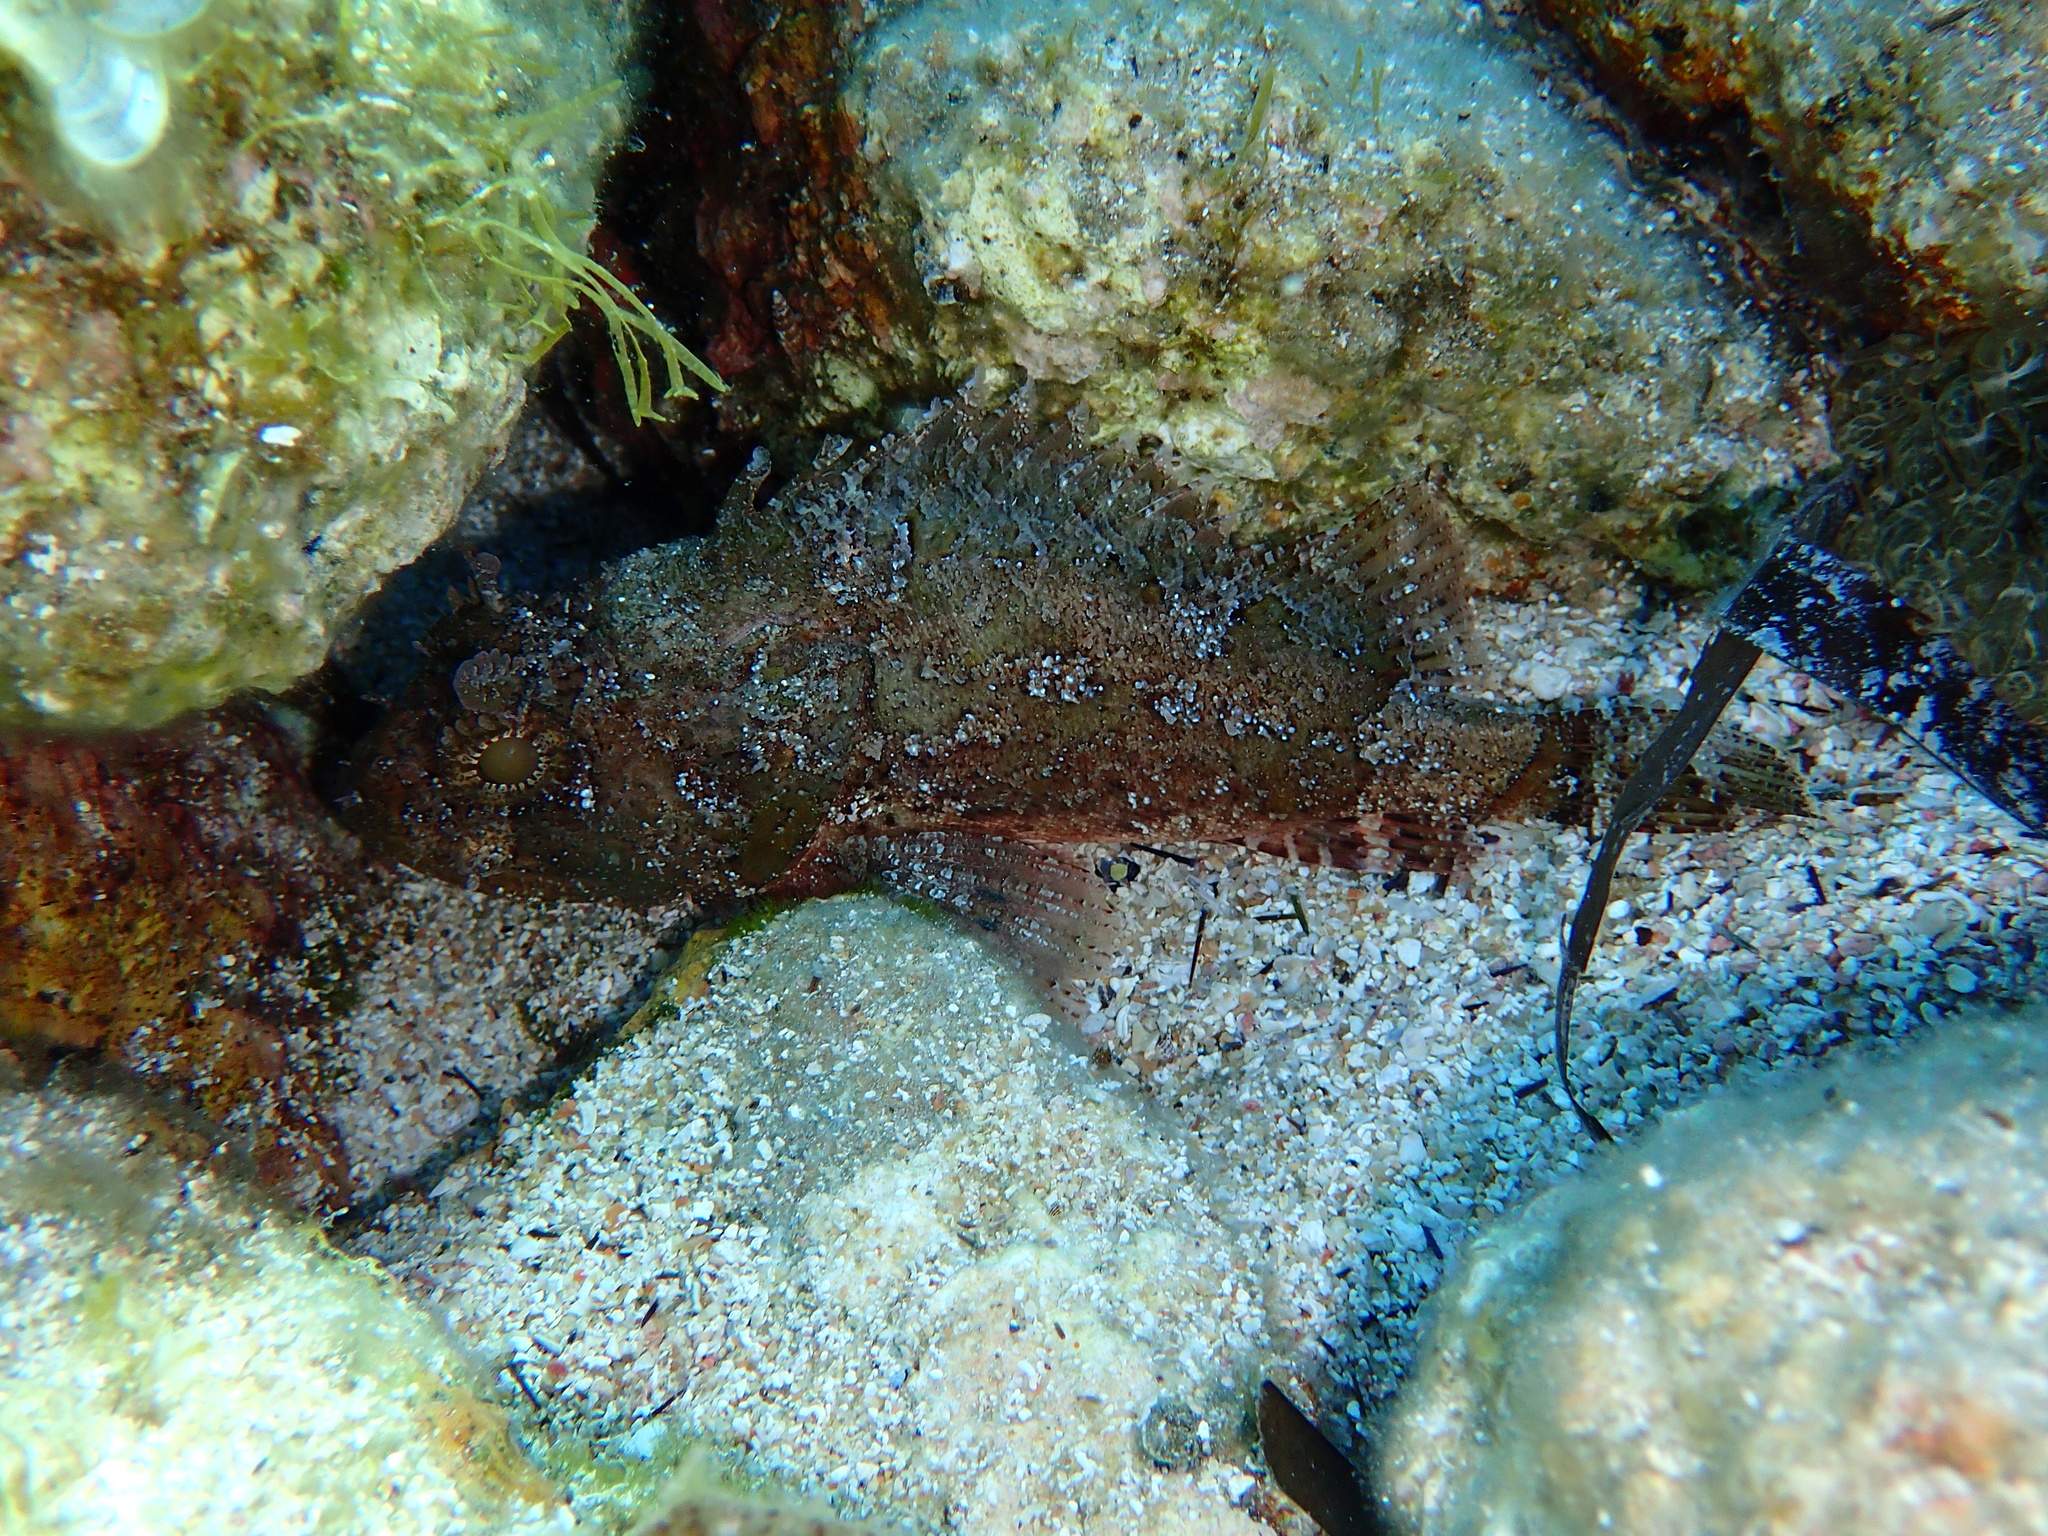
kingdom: Animalia
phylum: Chordata
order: Scorpaeniformes
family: Scorpaenidae
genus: Scorpaena
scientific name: Scorpaena porcus
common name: Black scorpionfish
